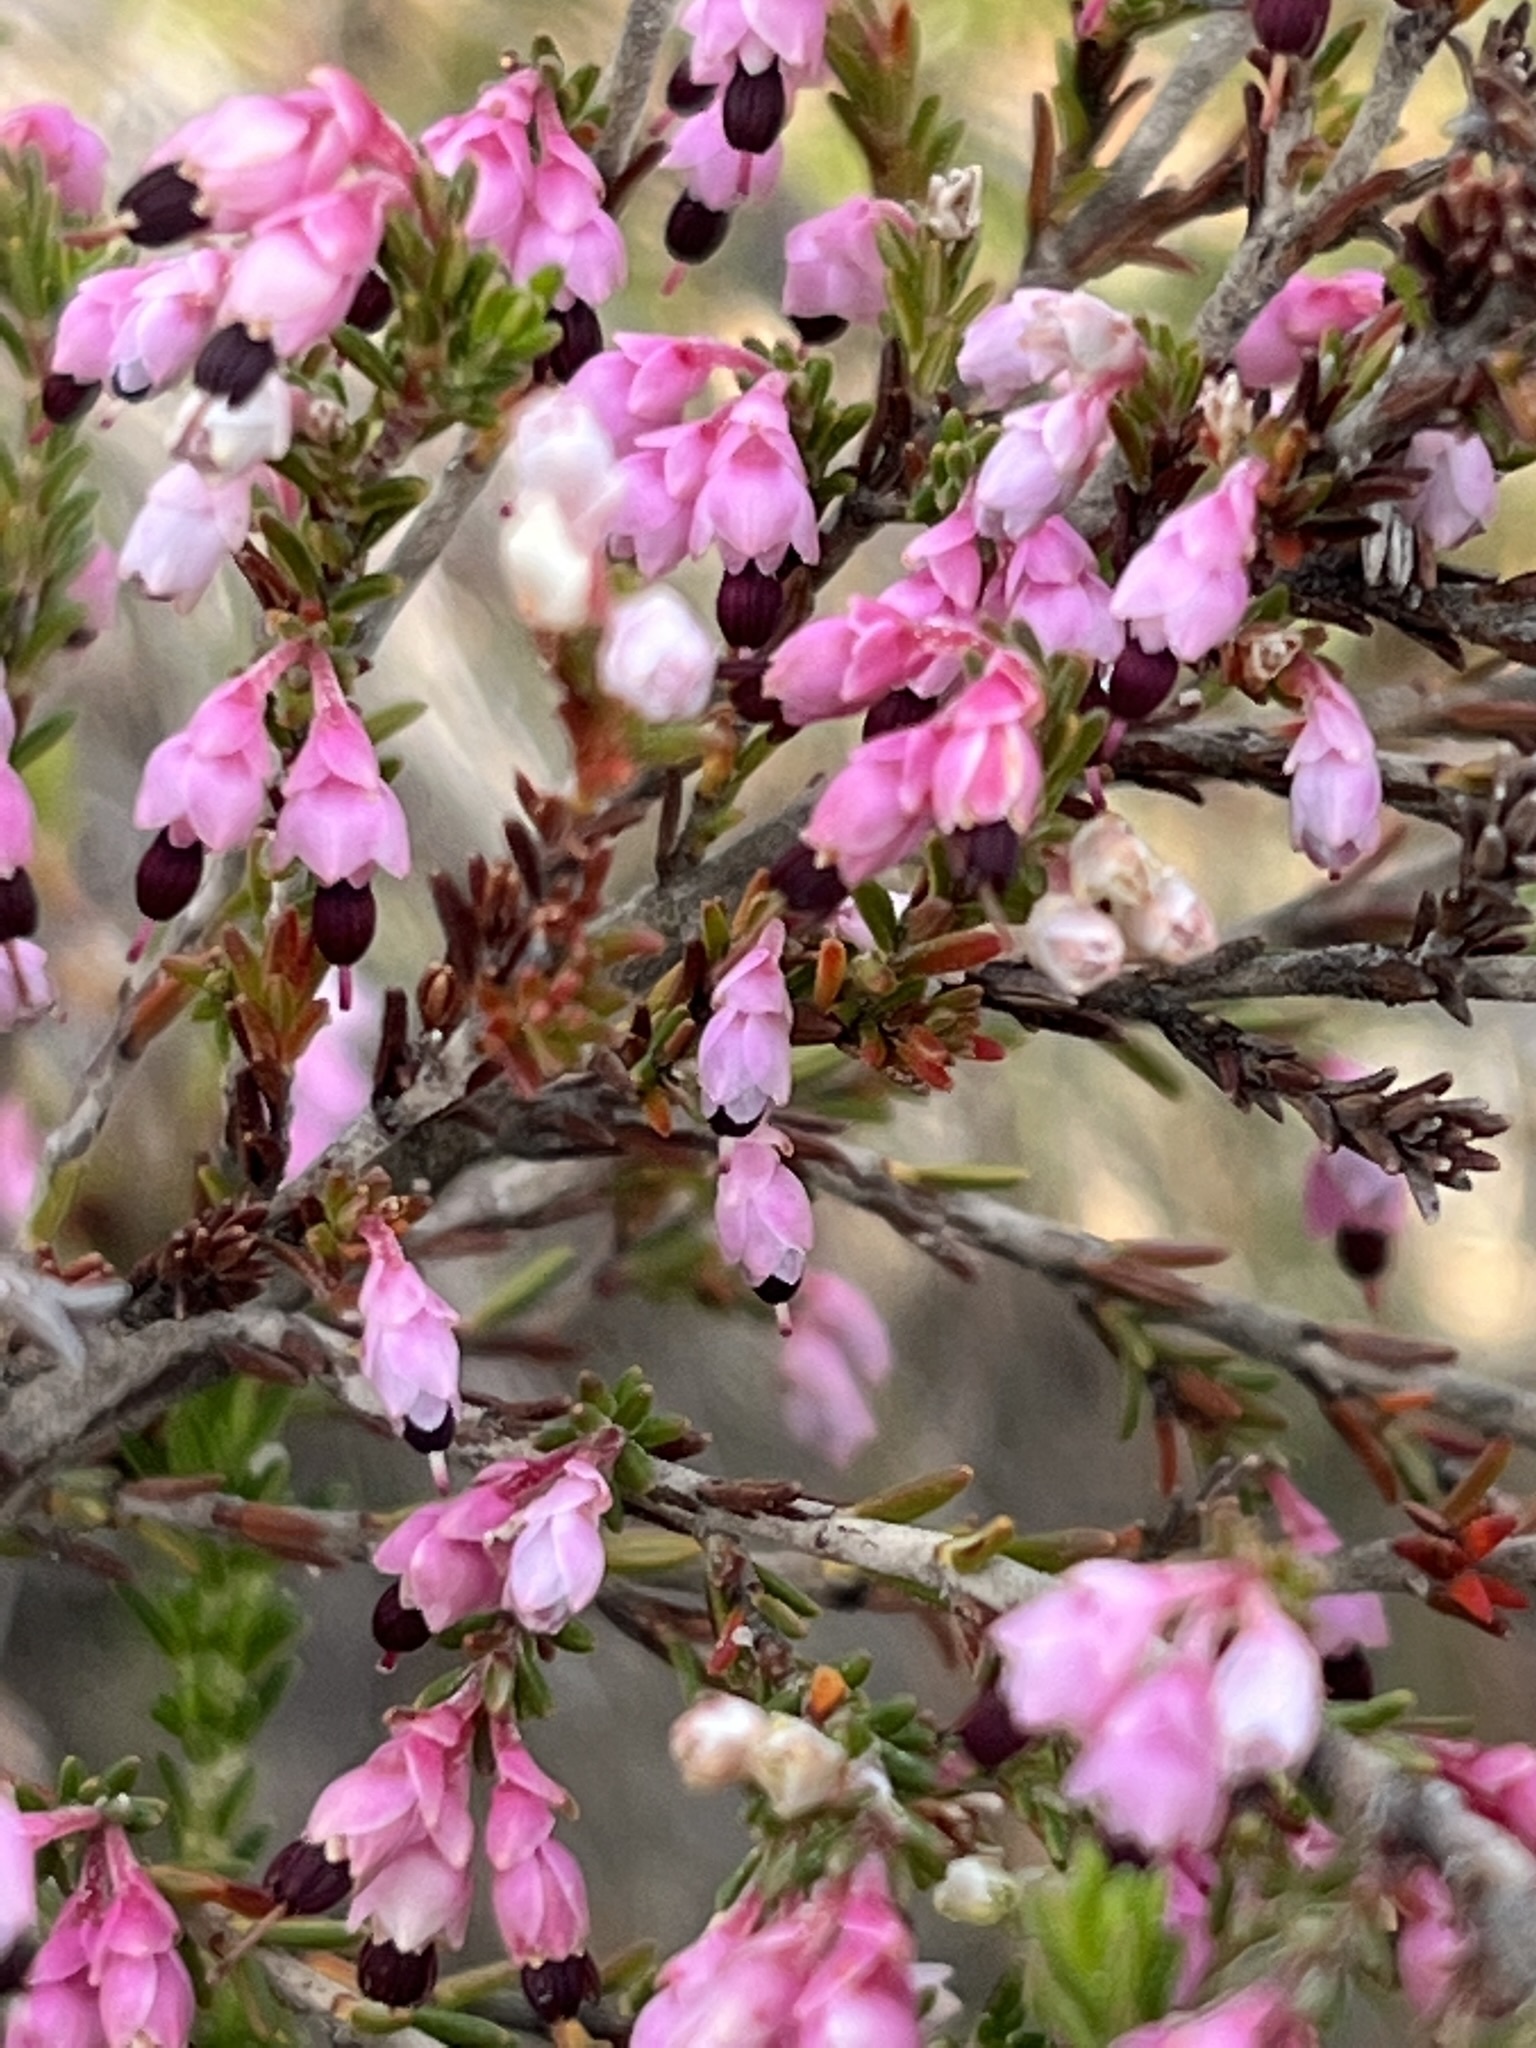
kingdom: Plantae
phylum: Tracheophyta
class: Magnoliopsida
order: Ericales
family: Ericaceae
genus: Erica
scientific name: Erica placentiflora
